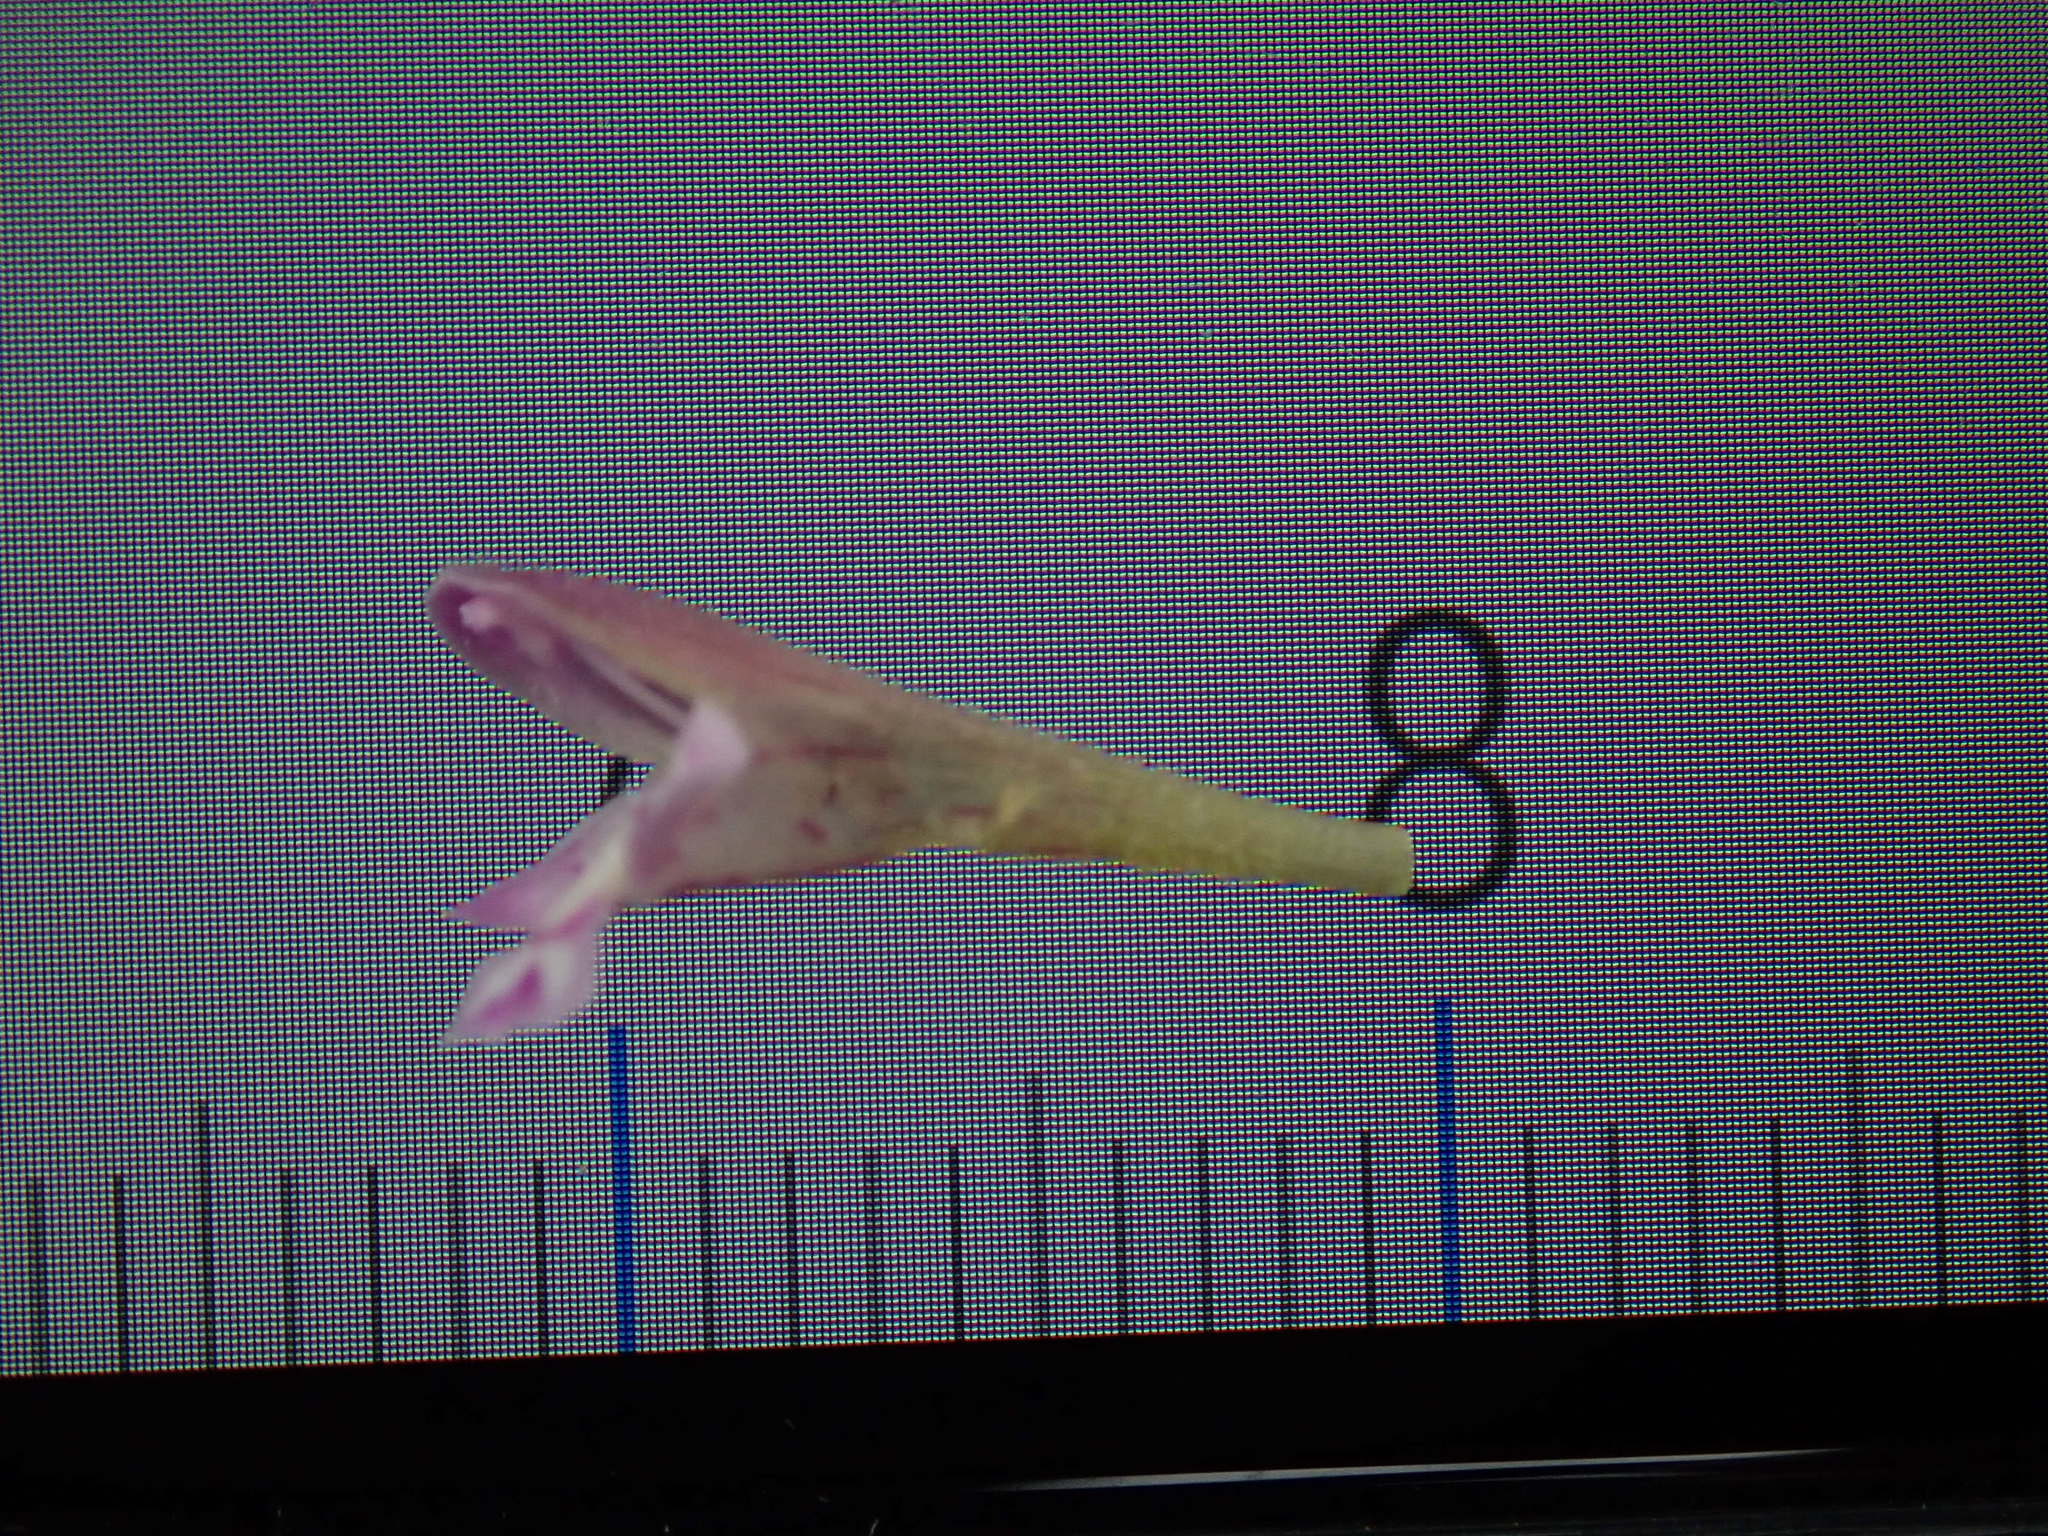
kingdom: Plantae
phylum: Tracheophyta
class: Magnoliopsida
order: Lamiales
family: Lamiaceae
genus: Clinopodium
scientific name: Clinopodium menthifolium
